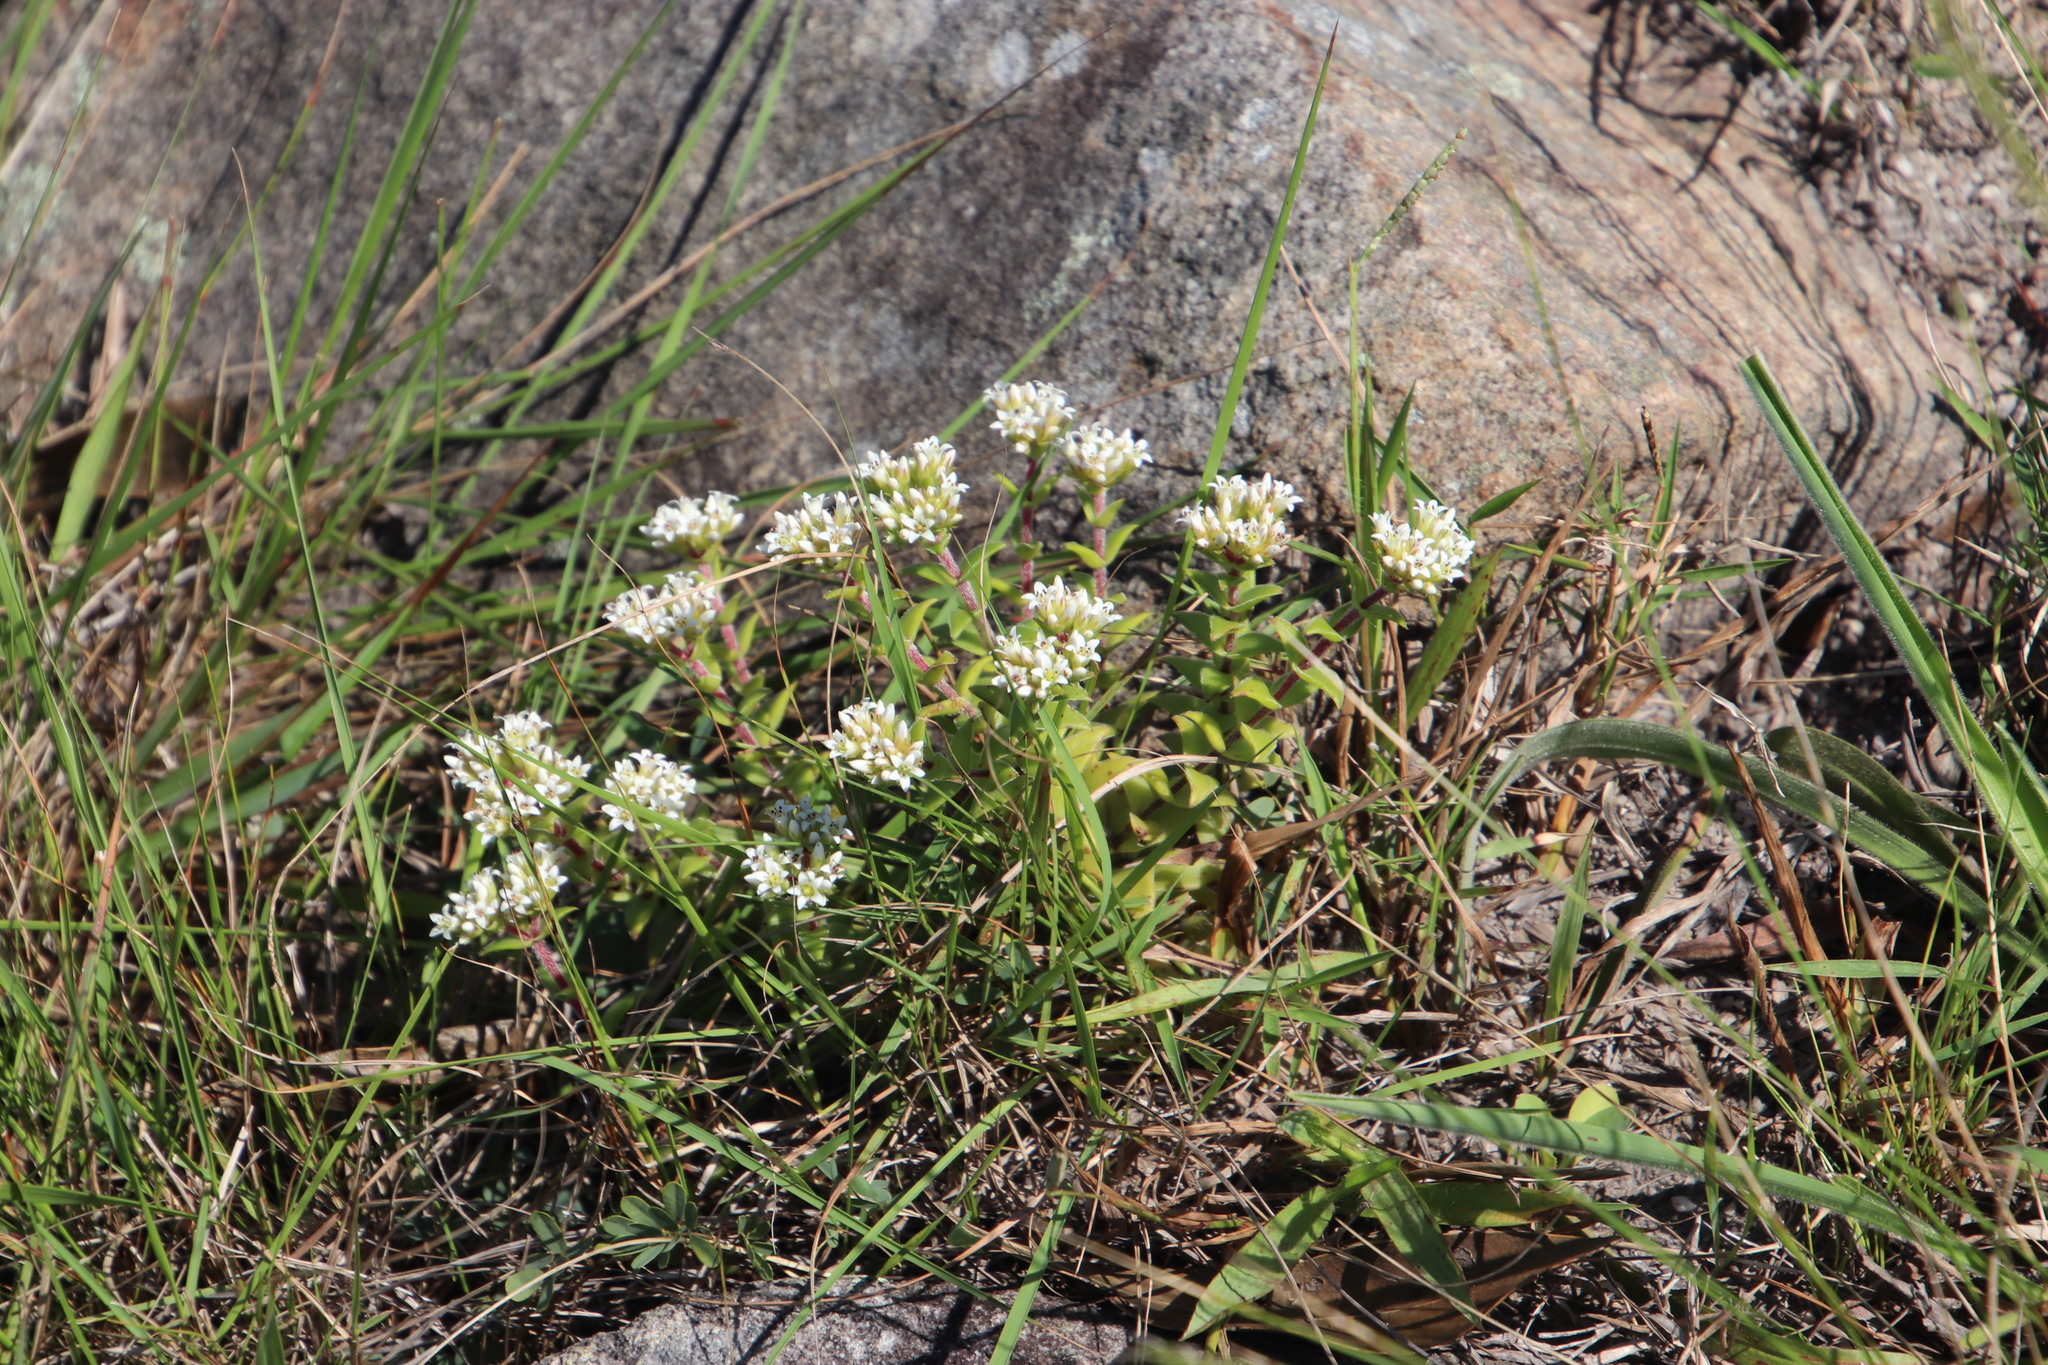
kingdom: Plantae
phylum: Tracheophyta
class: Magnoliopsida
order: Saxifragales
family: Crassulaceae
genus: Crassula
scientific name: Crassula obovata
